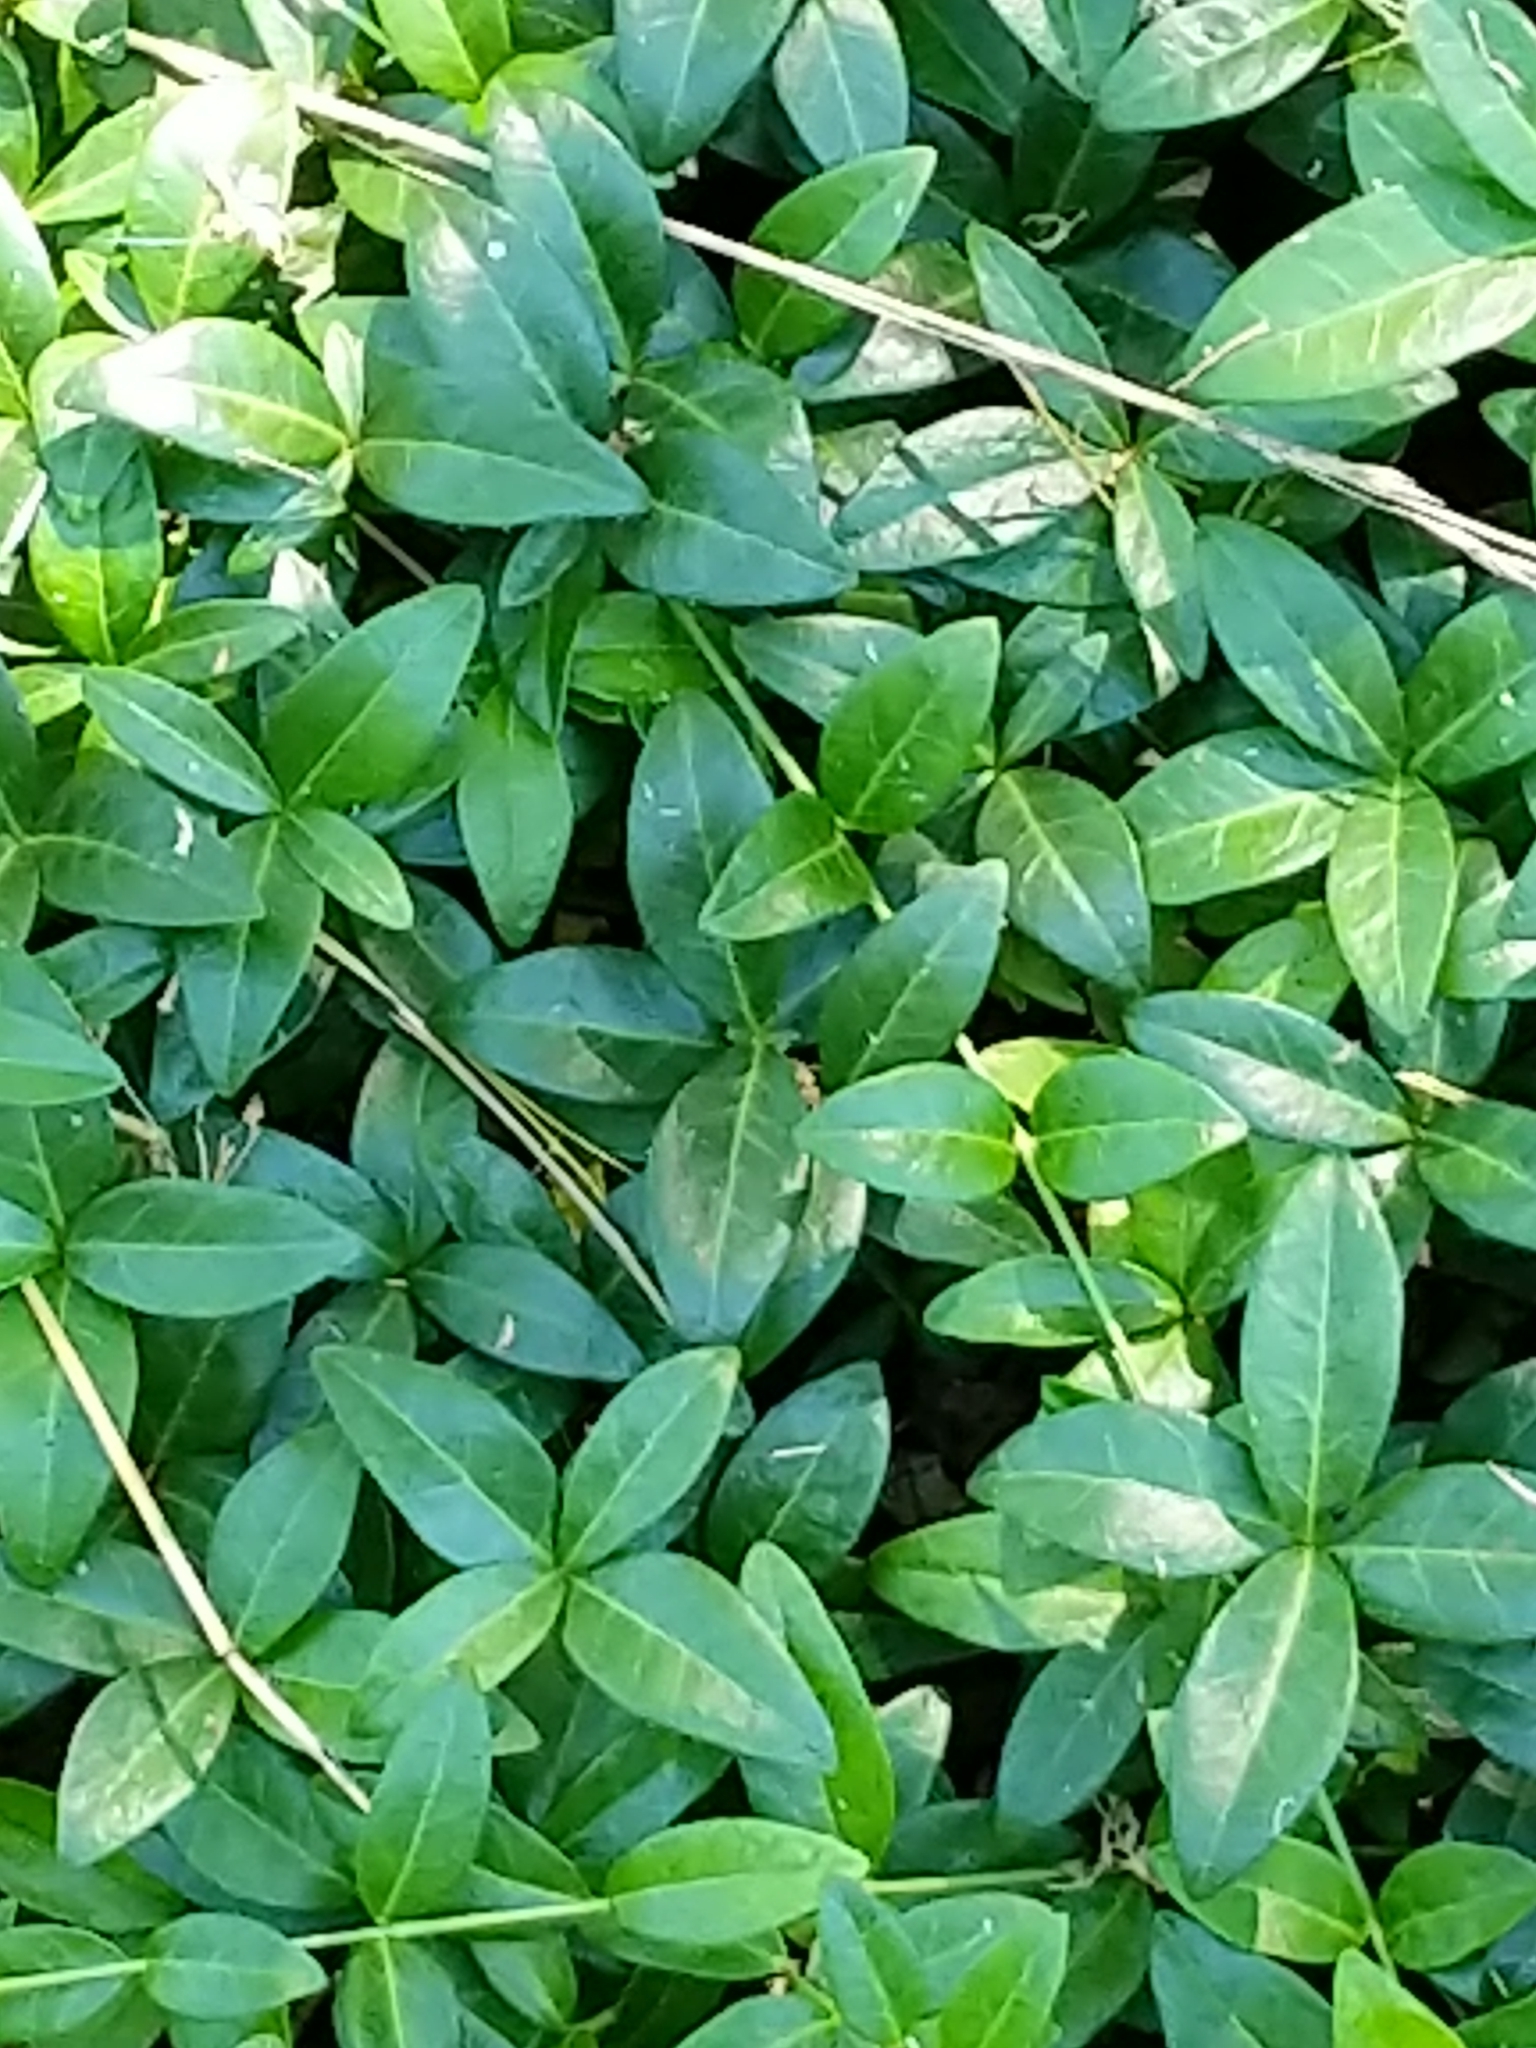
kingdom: Plantae
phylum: Tracheophyta
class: Magnoliopsida
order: Gentianales
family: Apocynaceae
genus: Vinca
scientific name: Vinca minor
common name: Lesser periwinkle
